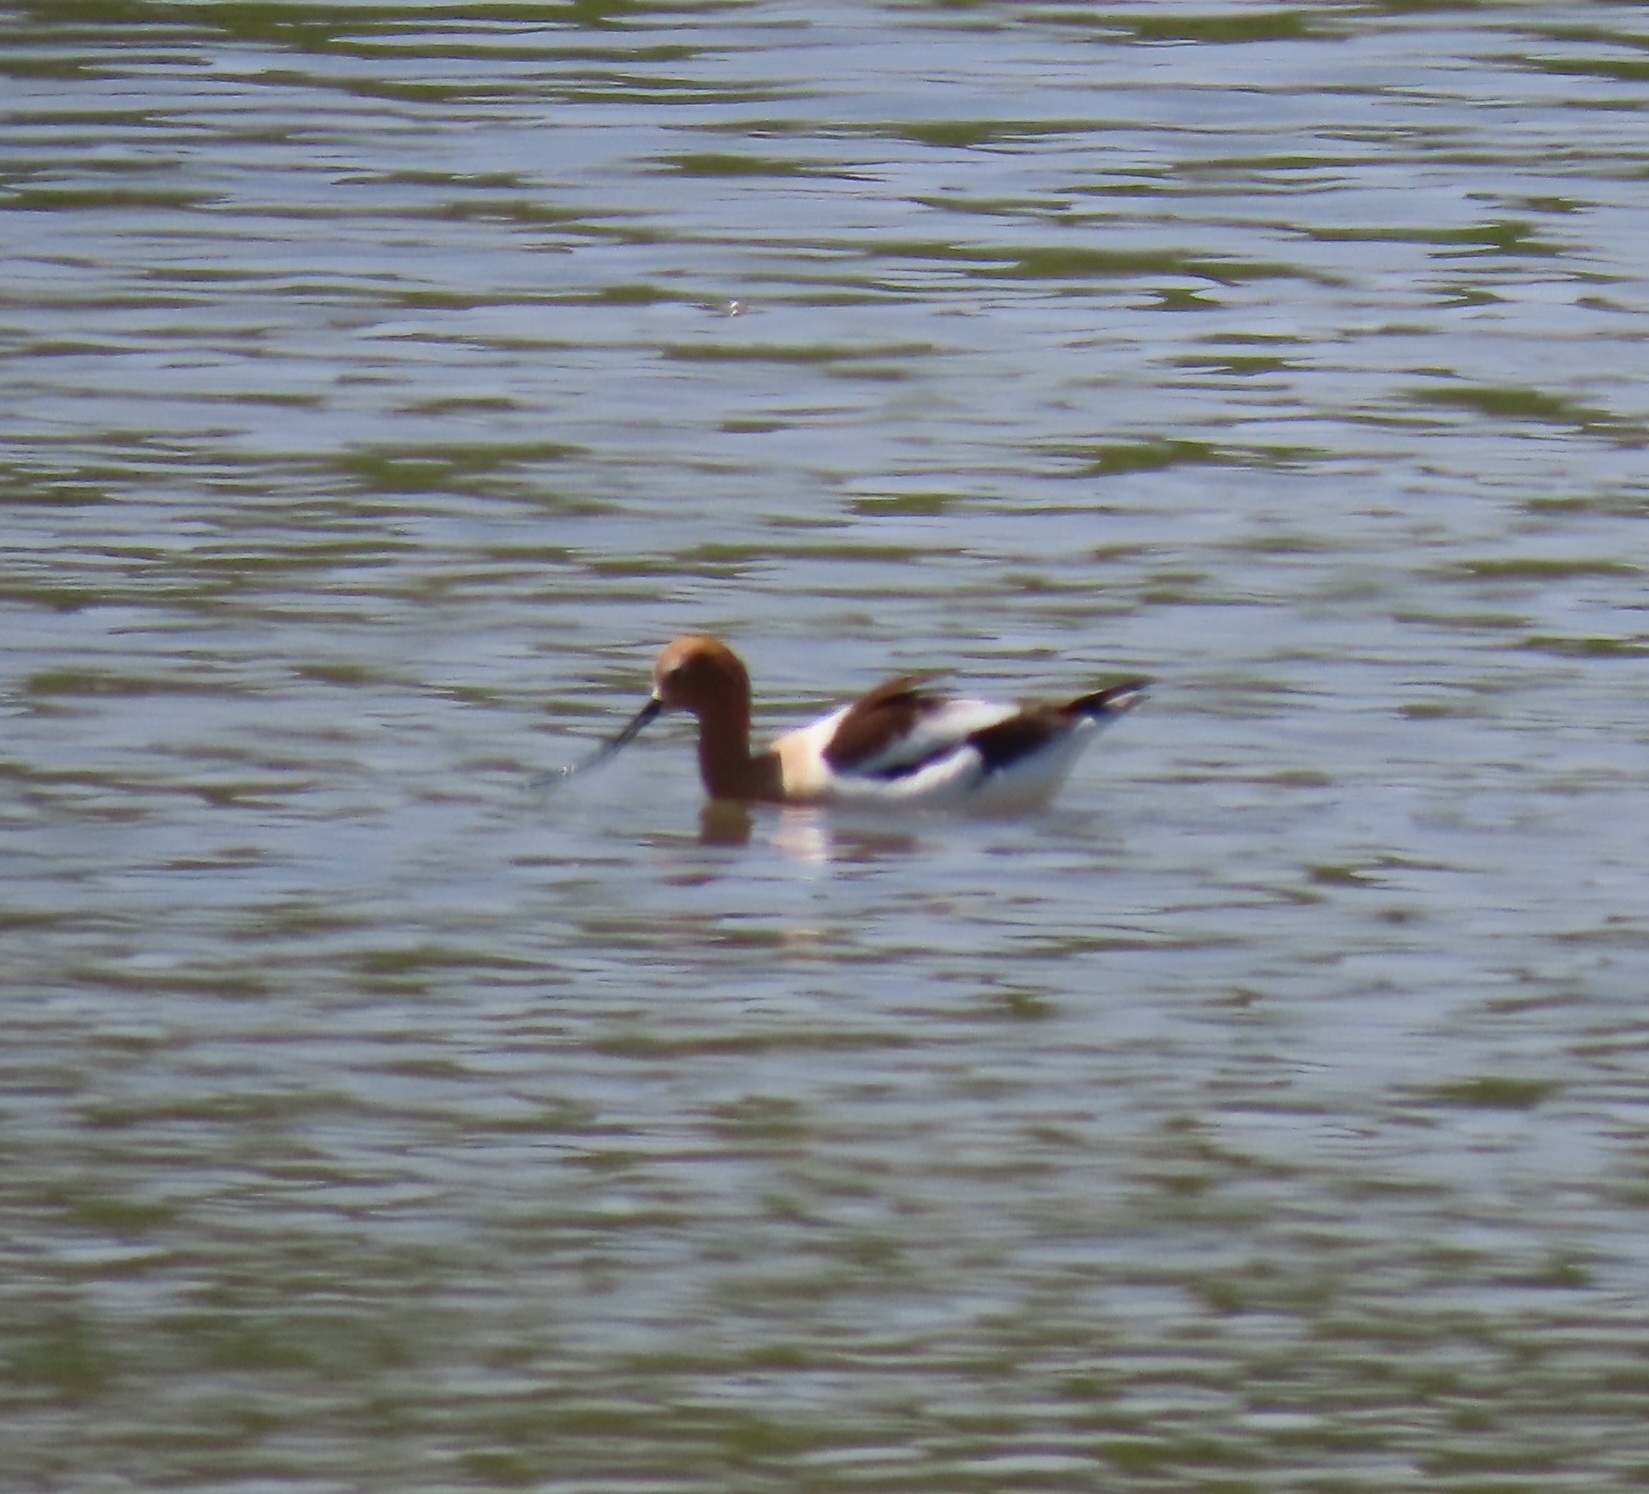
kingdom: Animalia
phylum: Chordata
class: Aves
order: Charadriiformes
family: Recurvirostridae
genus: Recurvirostra
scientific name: Recurvirostra americana
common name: American avocet
